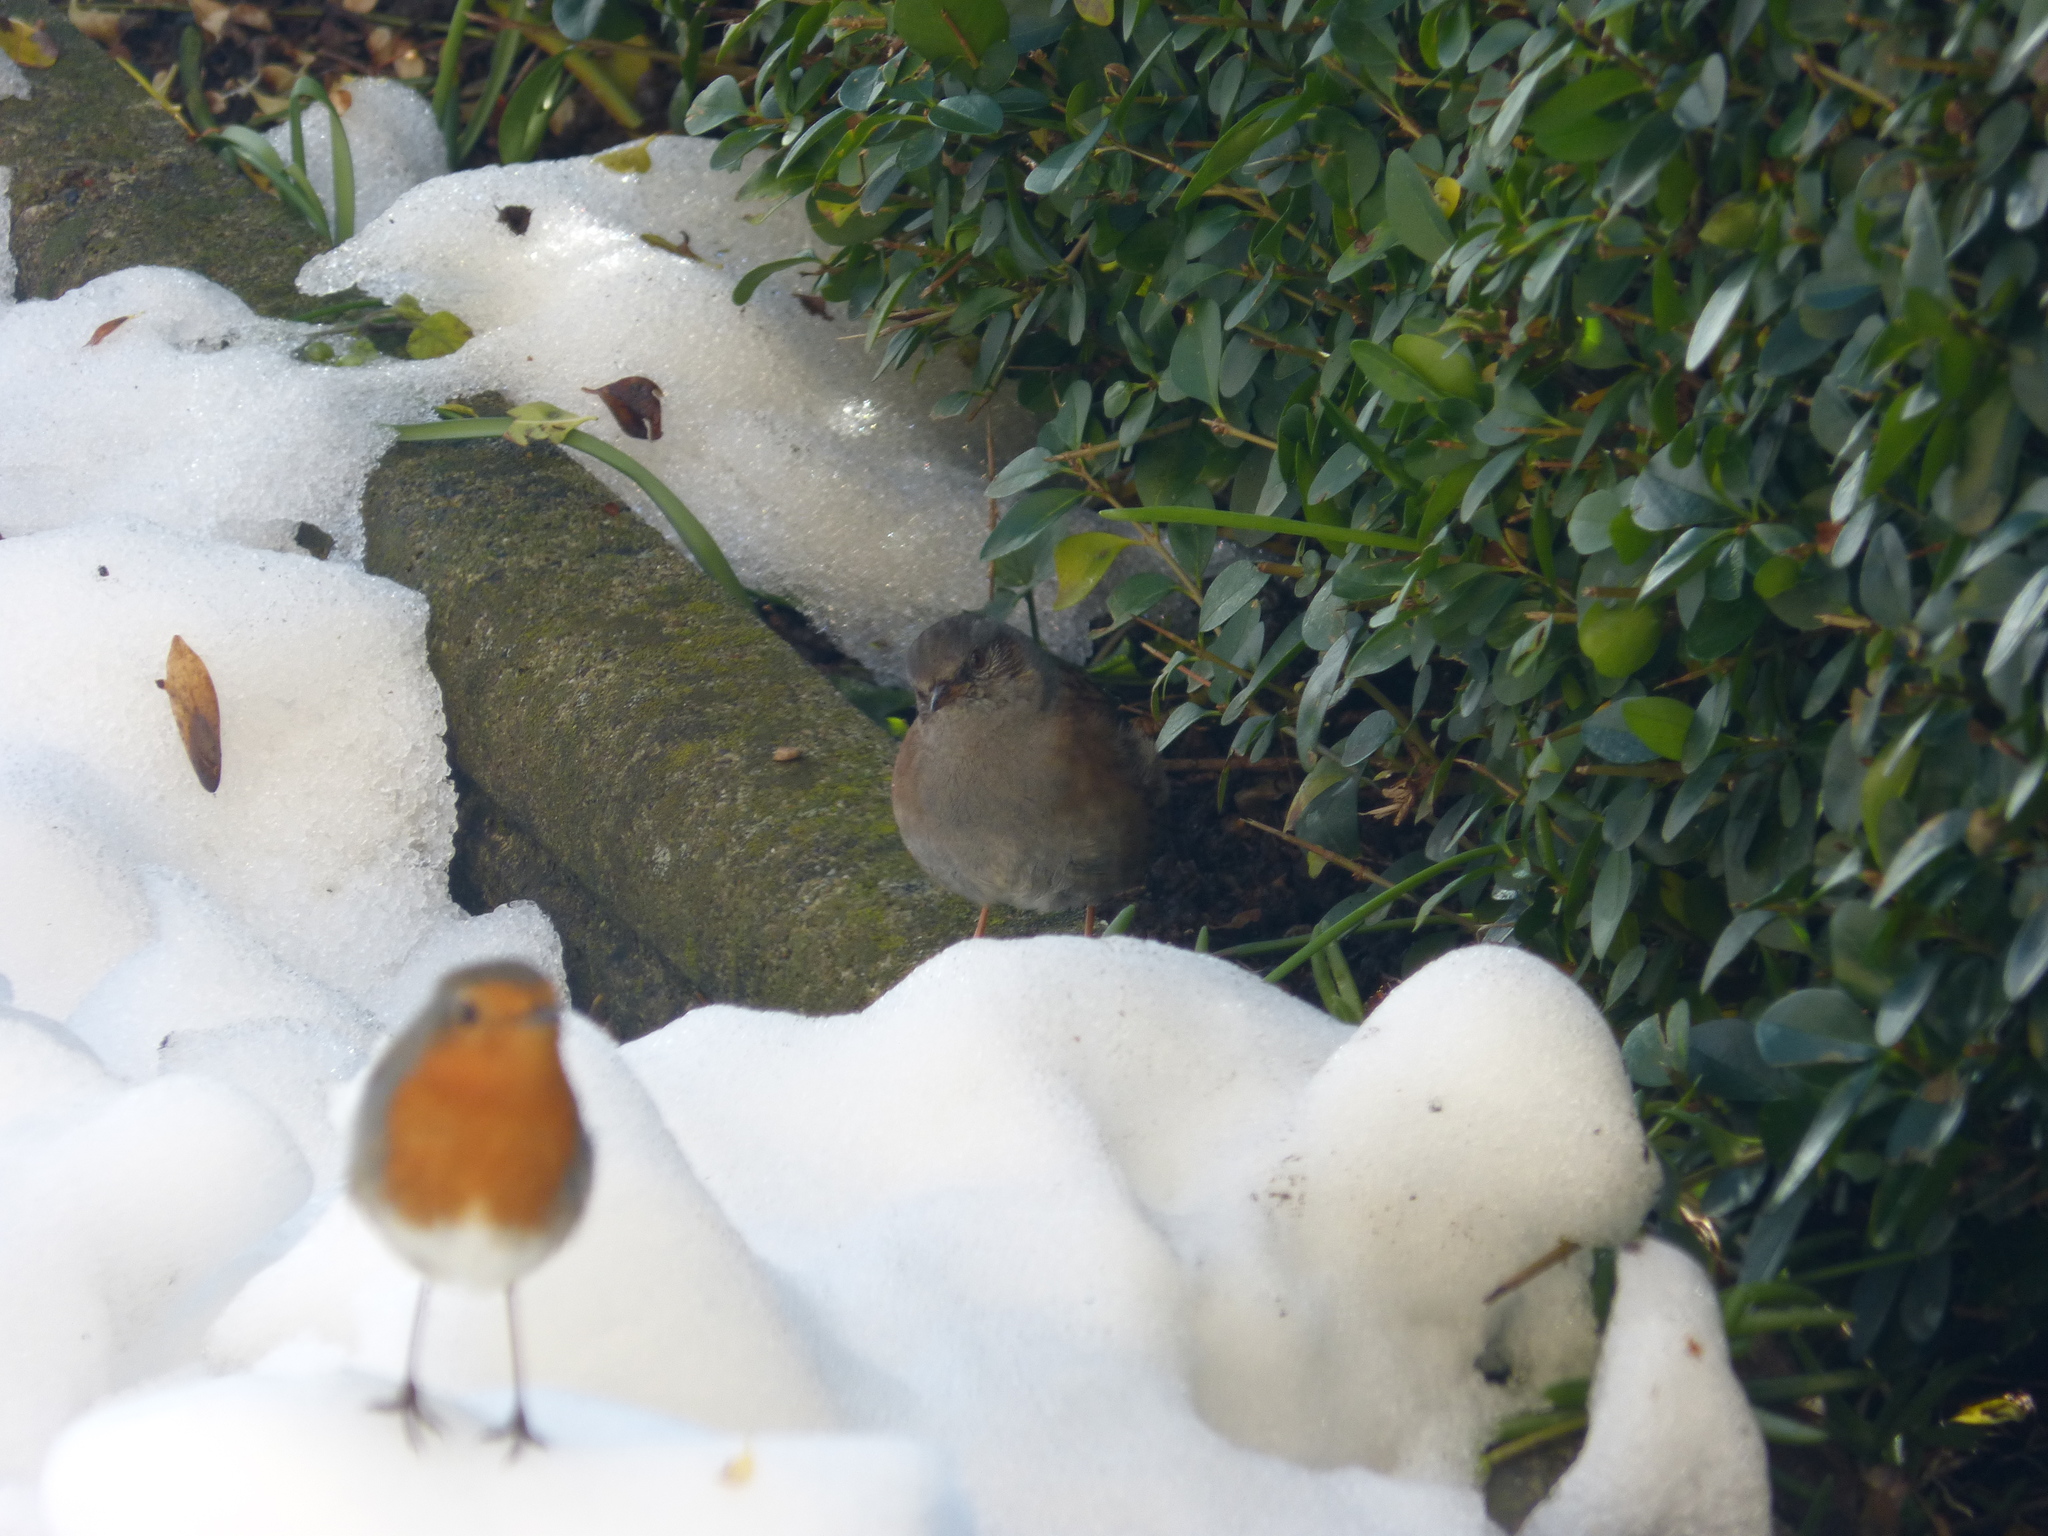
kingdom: Animalia
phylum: Chordata
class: Aves
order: Passeriformes
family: Prunellidae
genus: Prunella
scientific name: Prunella modularis
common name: Dunnock
